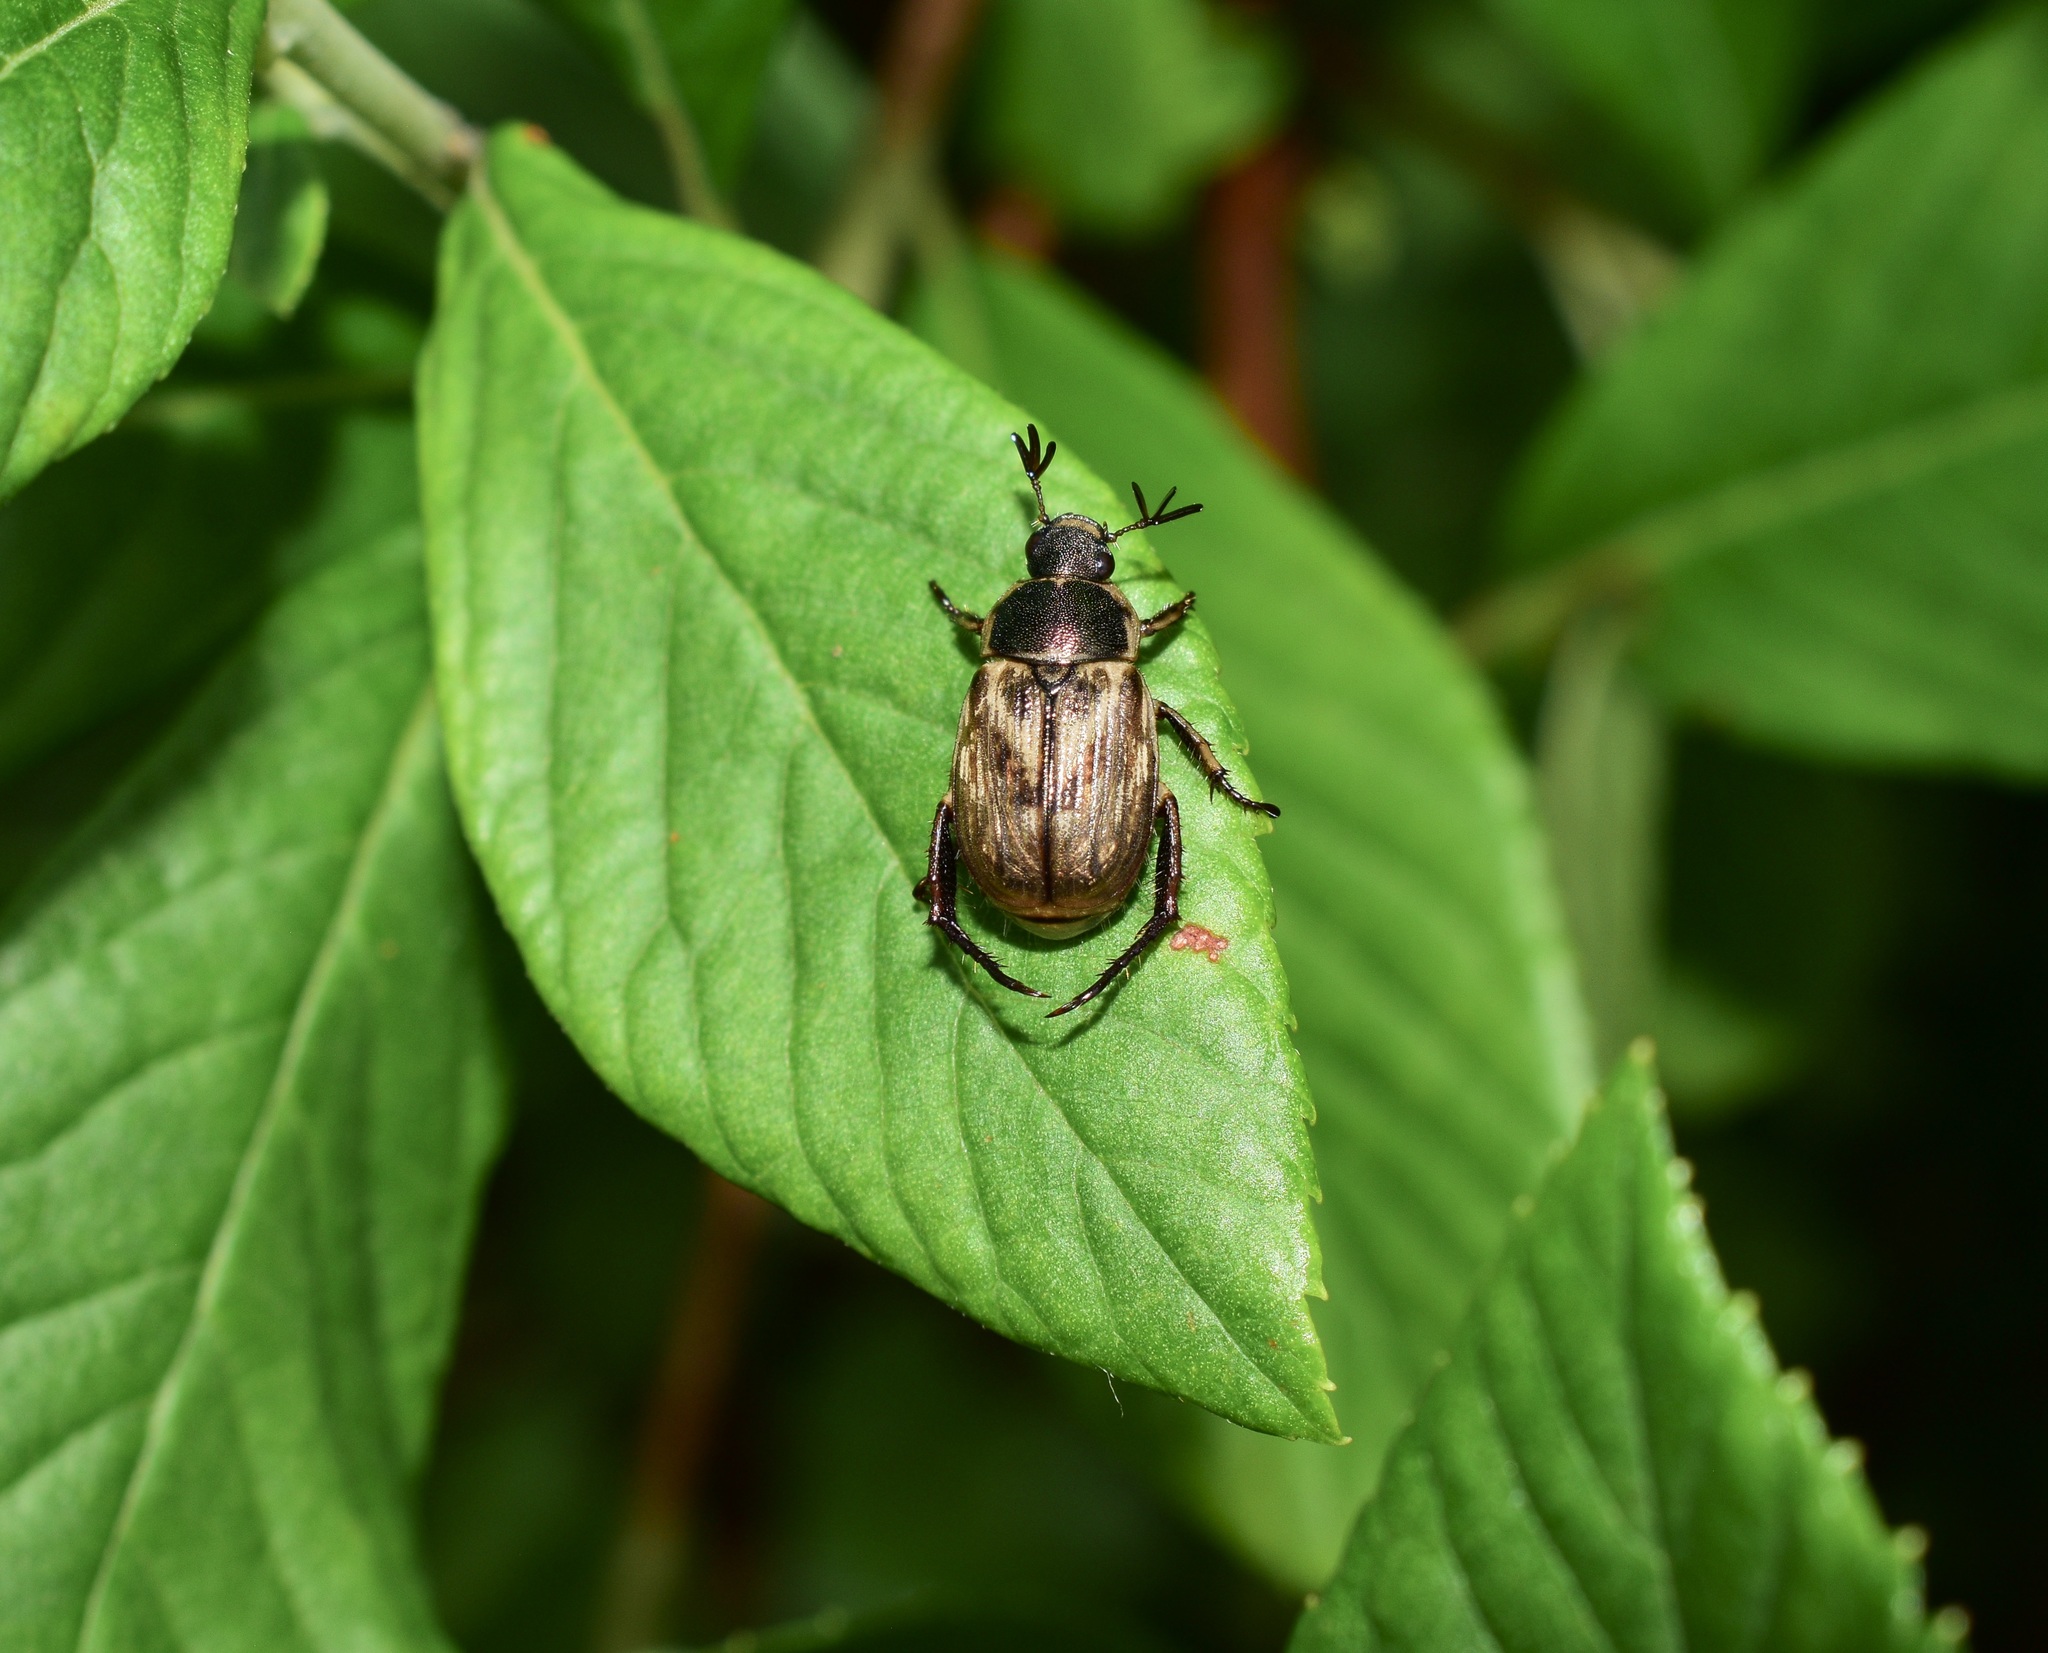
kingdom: Animalia
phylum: Arthropoda
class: Insecta
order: Coleoptera
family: Scarabaeidae
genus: Exomala
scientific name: Exomala orientalis
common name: Oriental beetle
